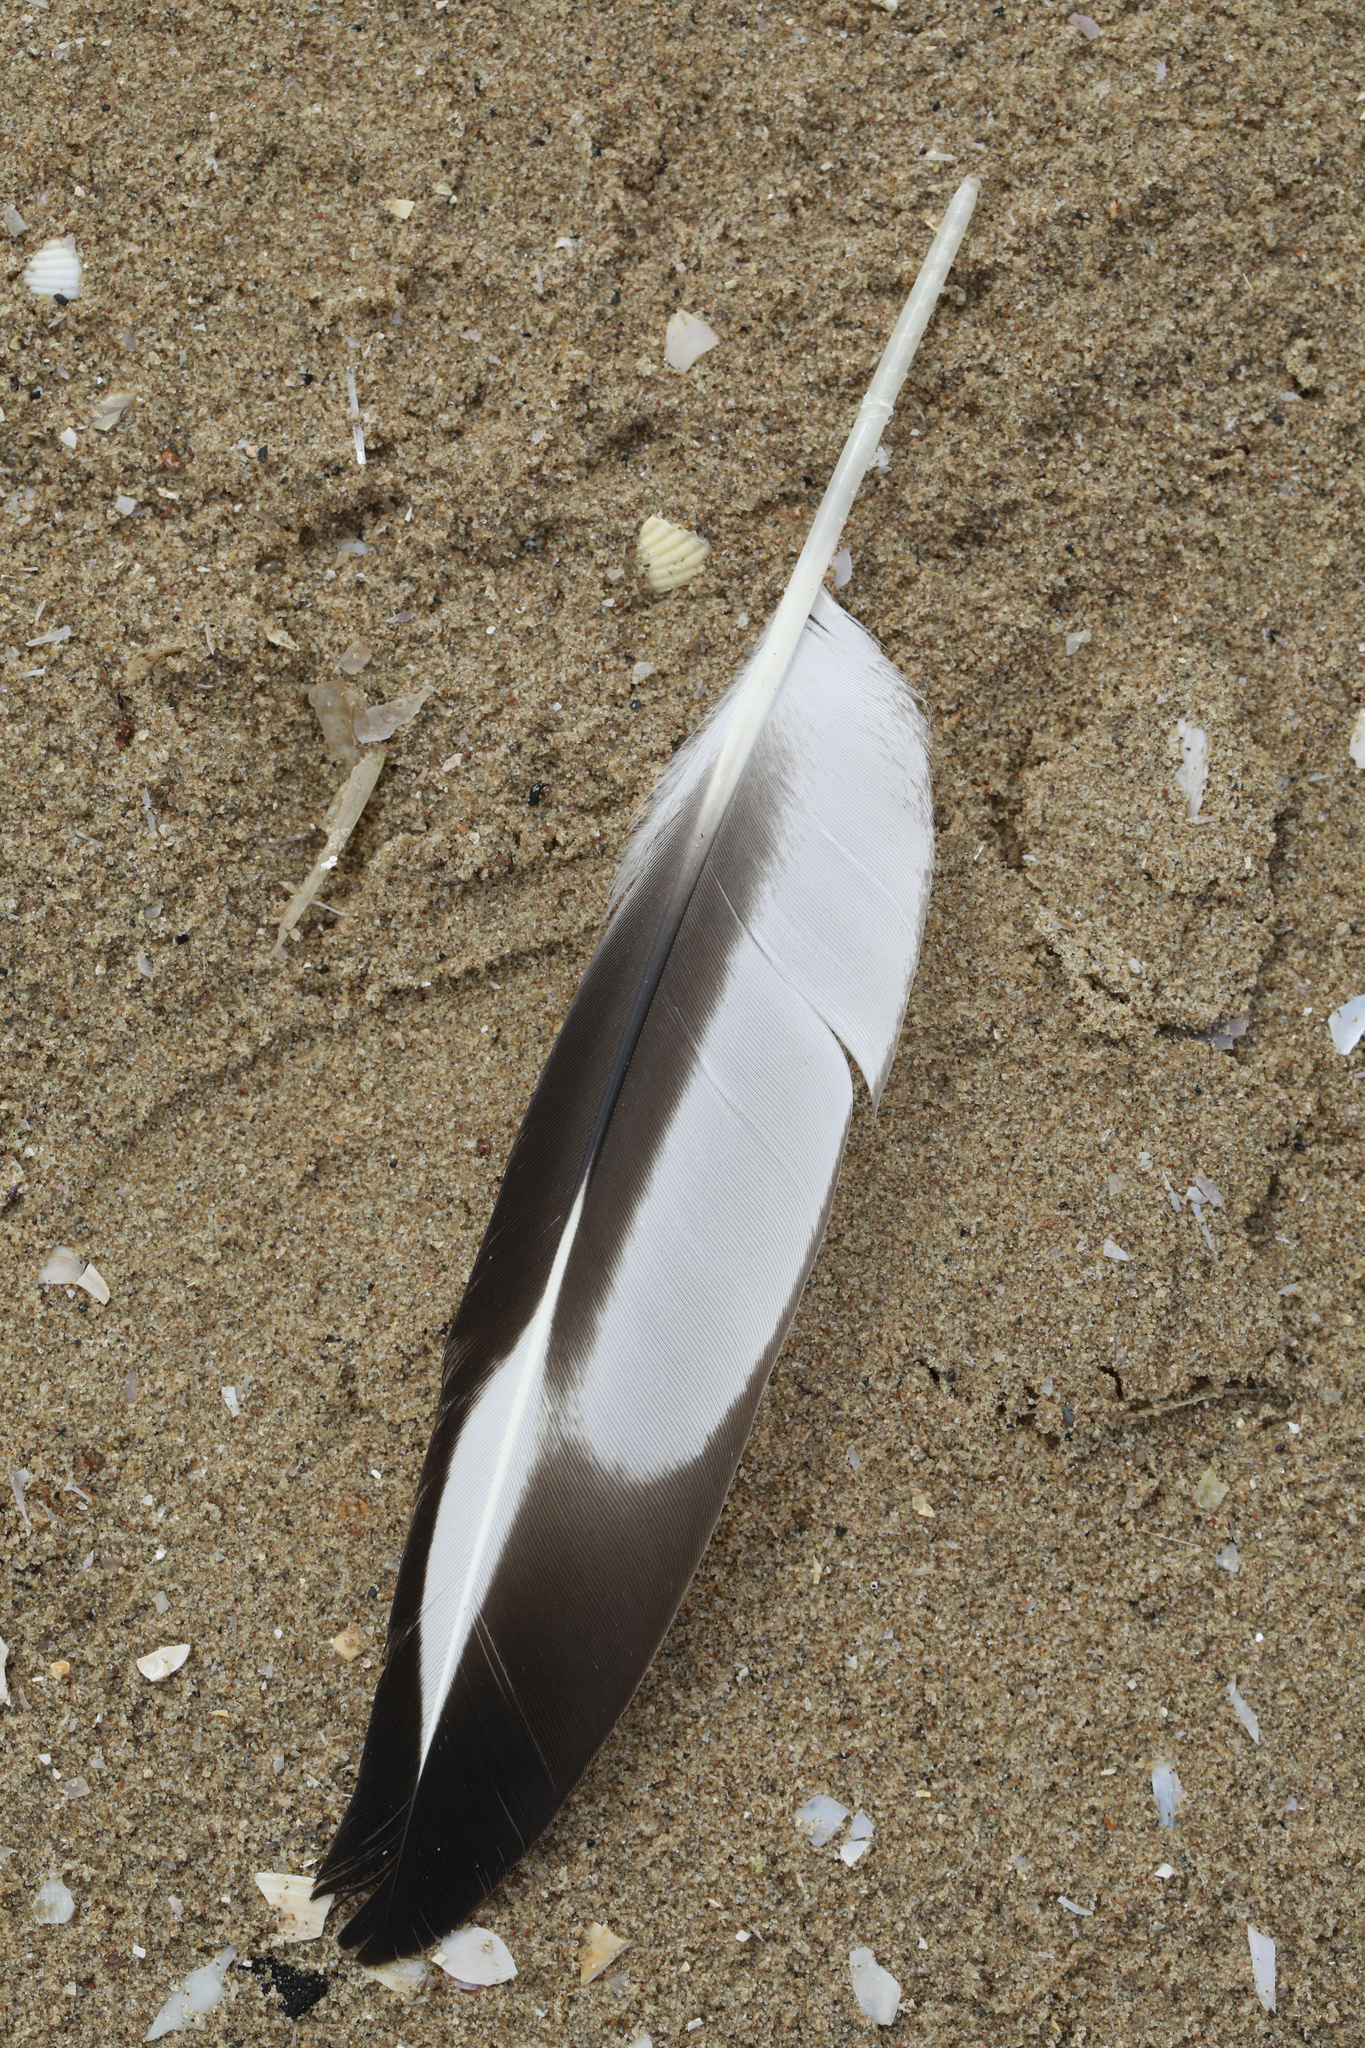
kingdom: Animalia
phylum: Chordata
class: Aves
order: Charadriiformes
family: Haematopodidae
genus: Haematopus
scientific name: Haematopus ostralegus
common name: Eurasian oystercatcher
